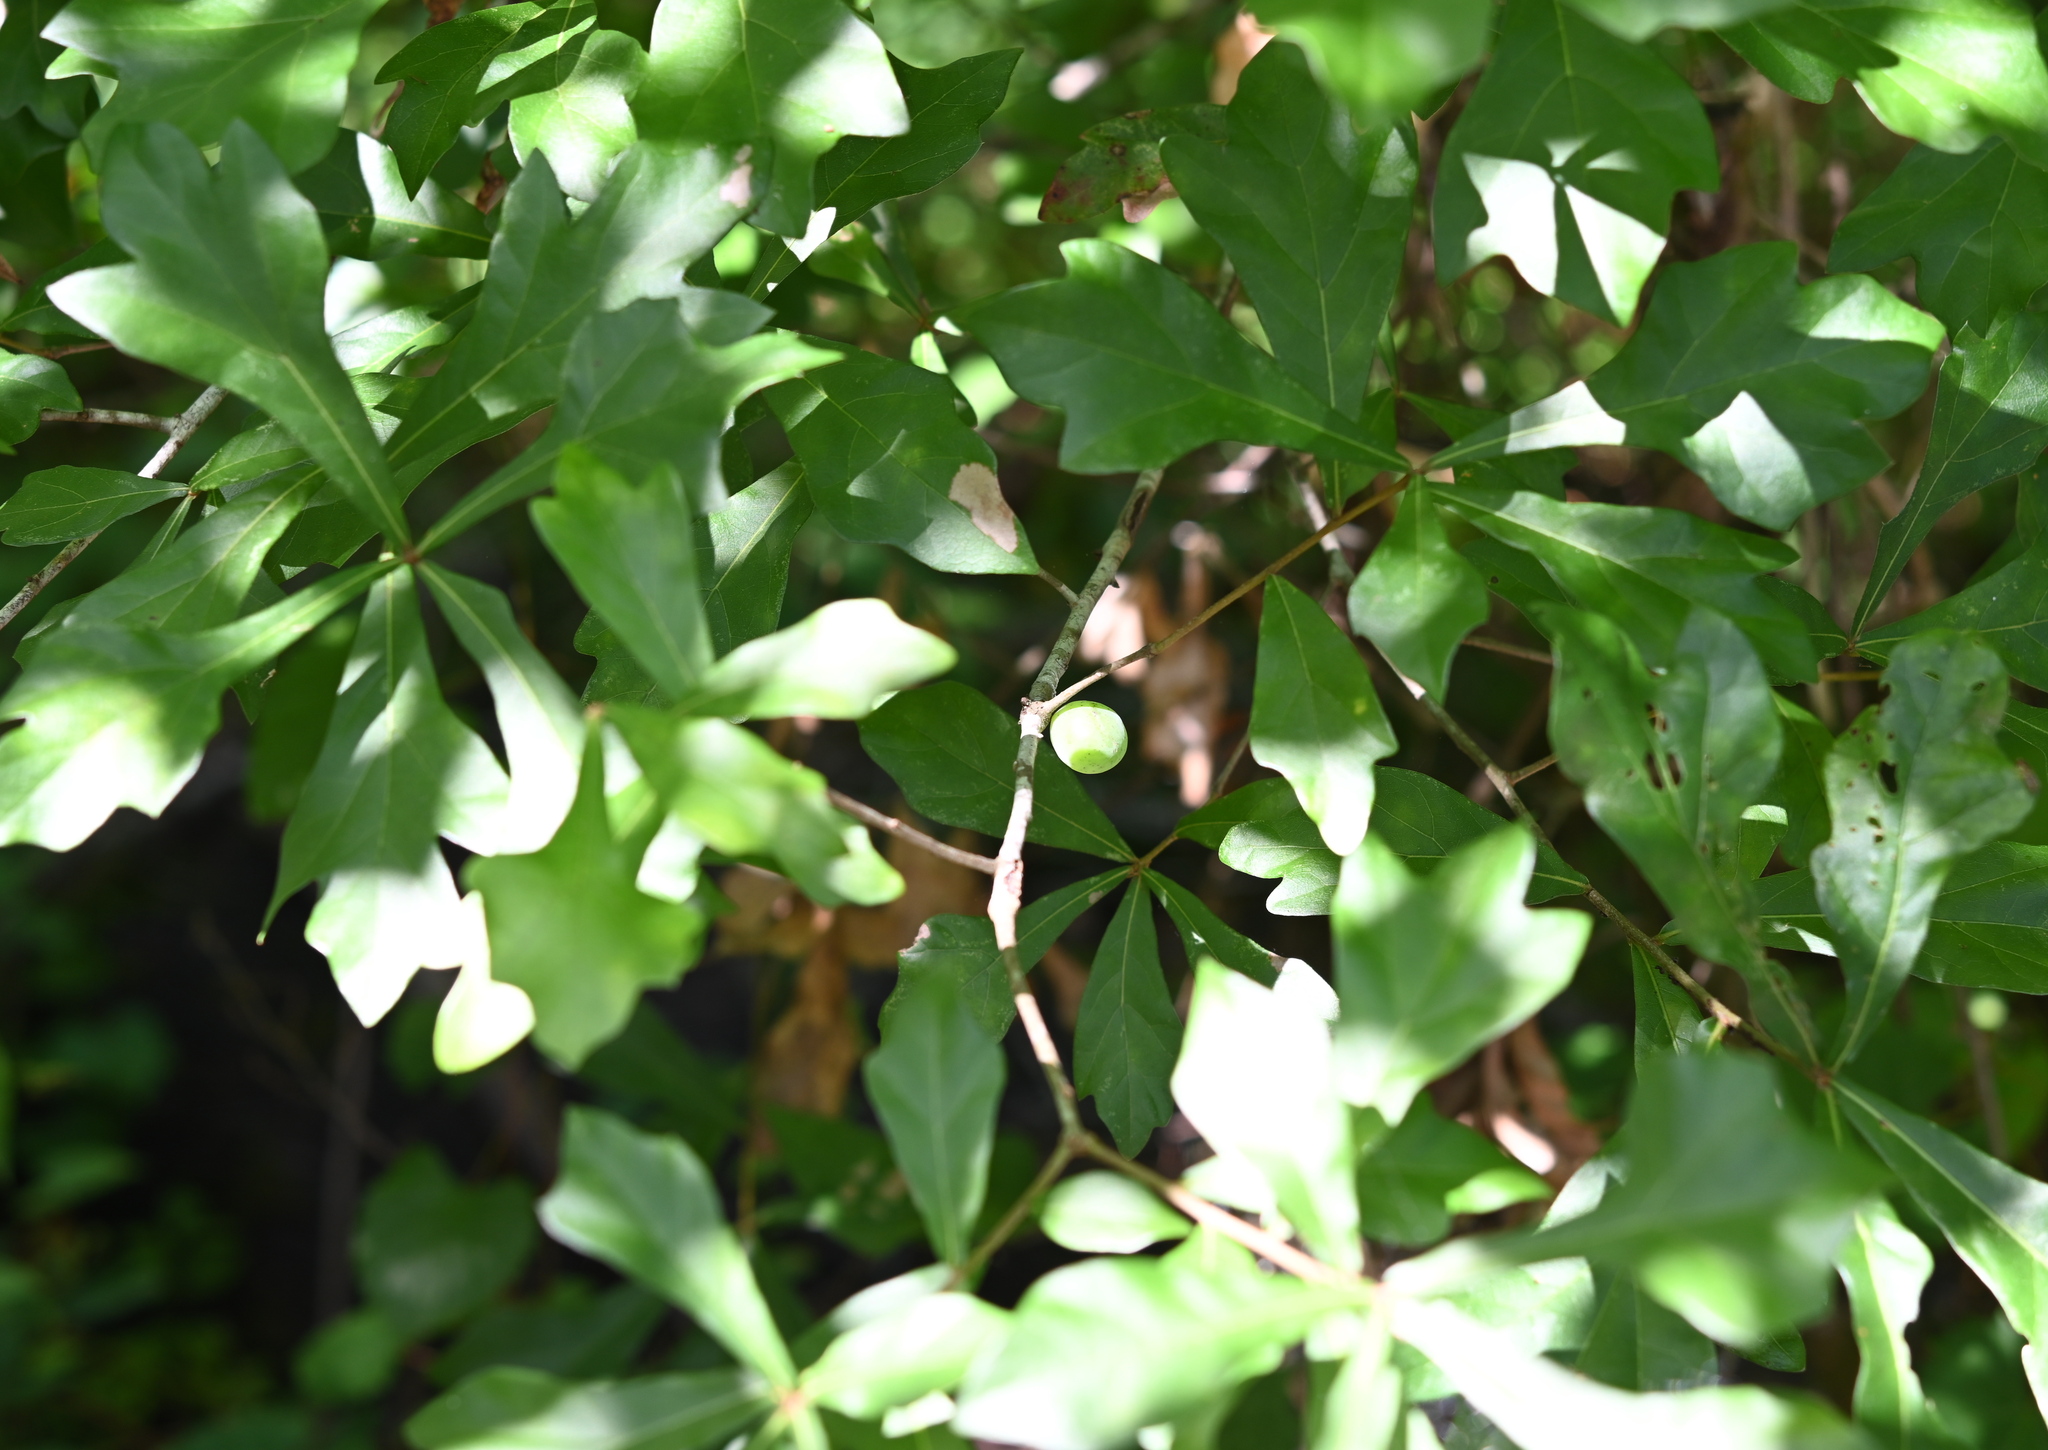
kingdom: Animalia
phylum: Arthropoda
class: Insecta
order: Hymenoptera
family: Cynipidae
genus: Amphibolips
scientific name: Amphibolips
